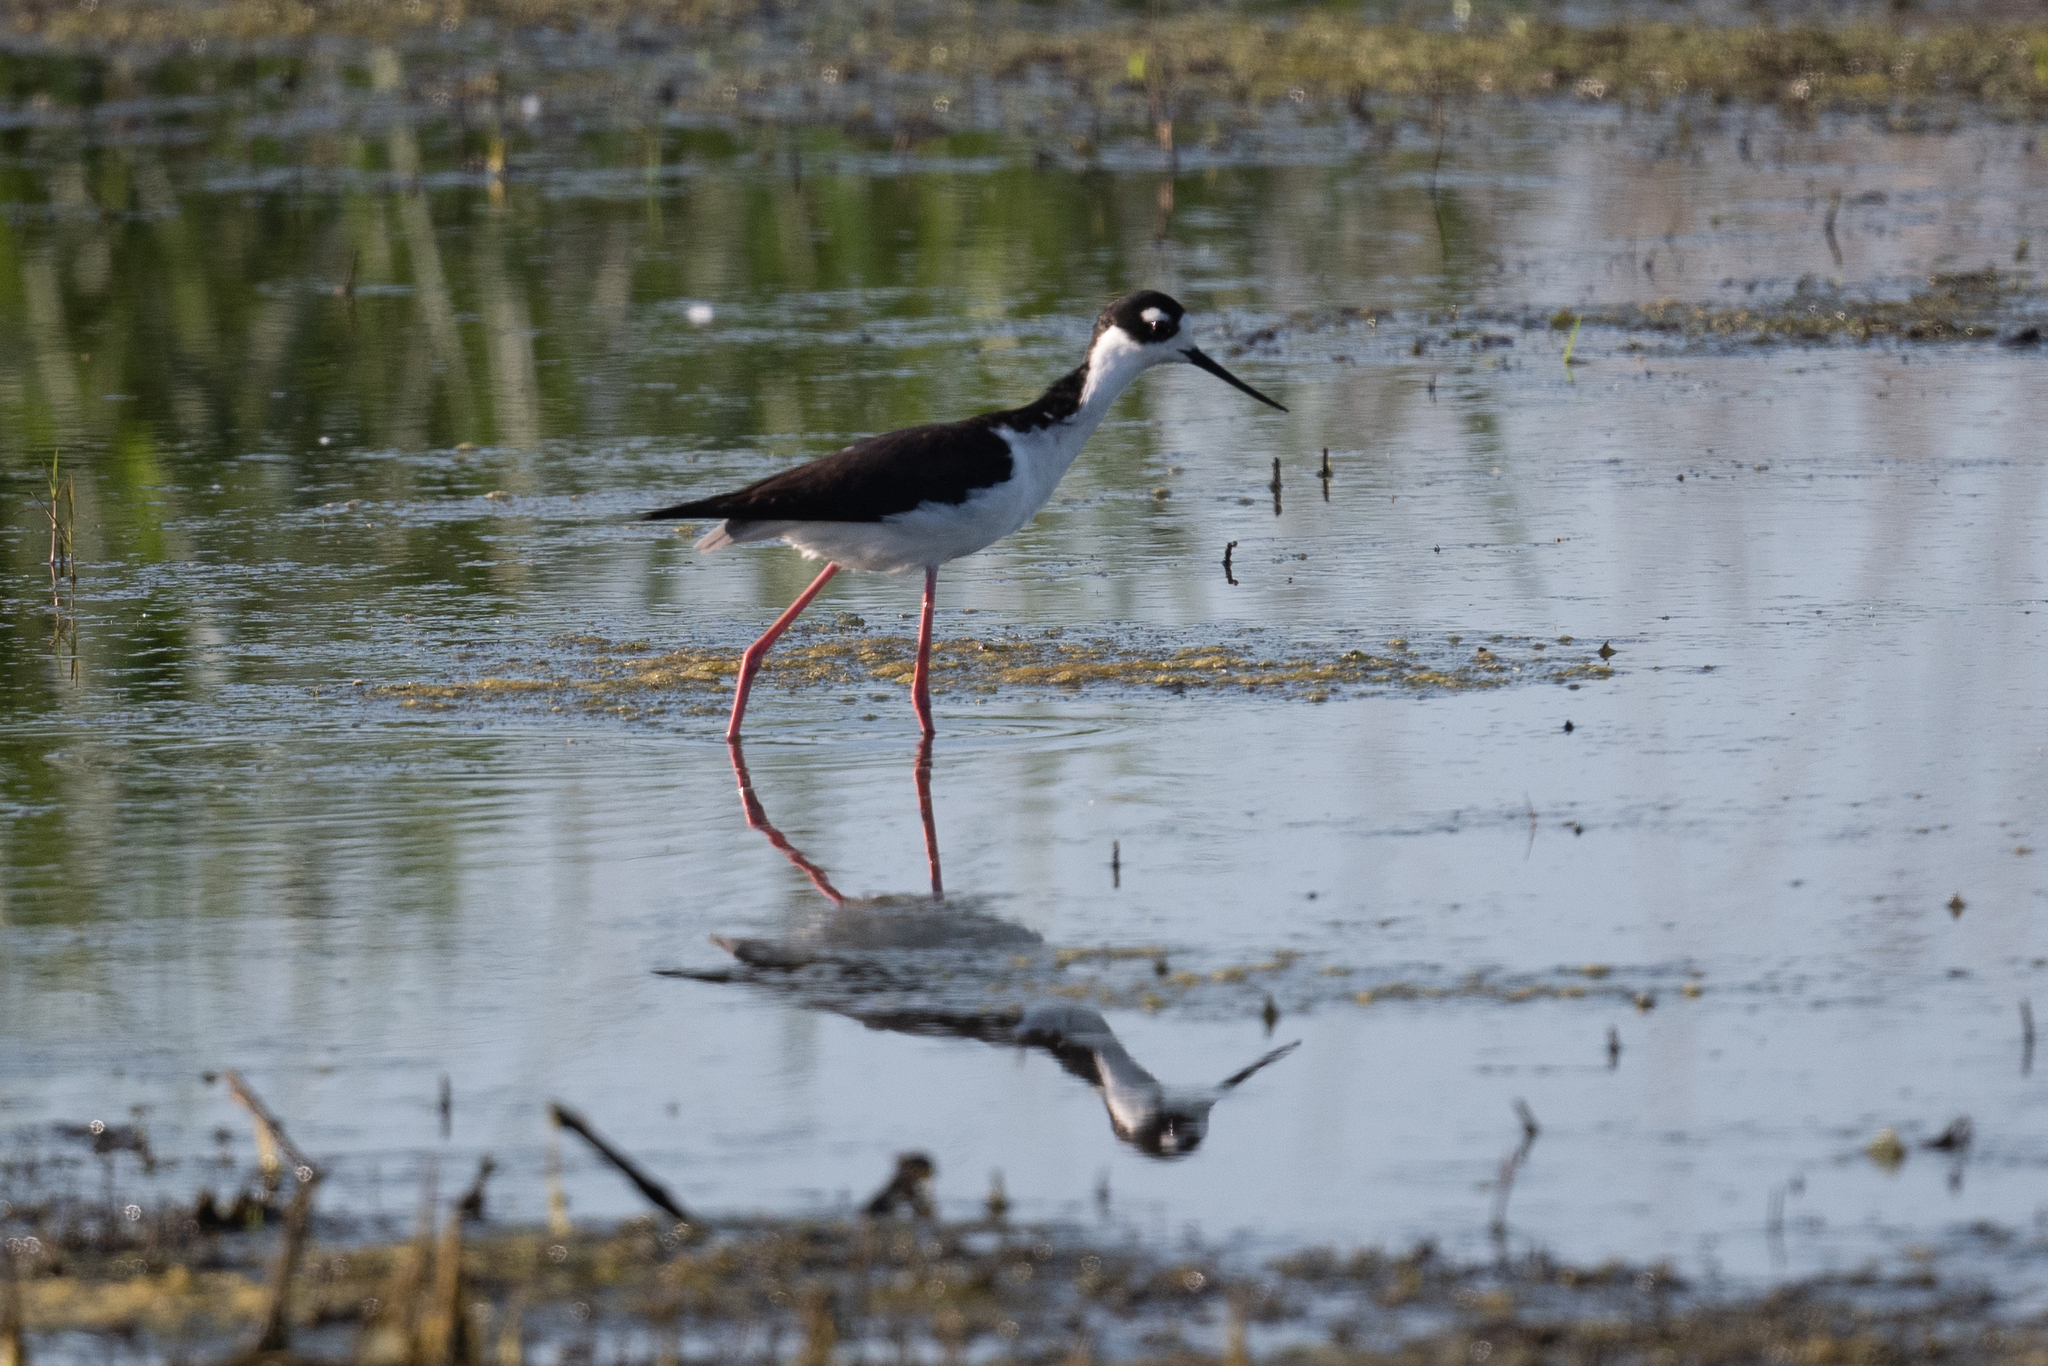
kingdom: Animalia
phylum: Chordata
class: Aves
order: Charadriiformes
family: Recurvirostridae
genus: Himantopus
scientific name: Himantopus mexicanus
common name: Black-necked stilt
